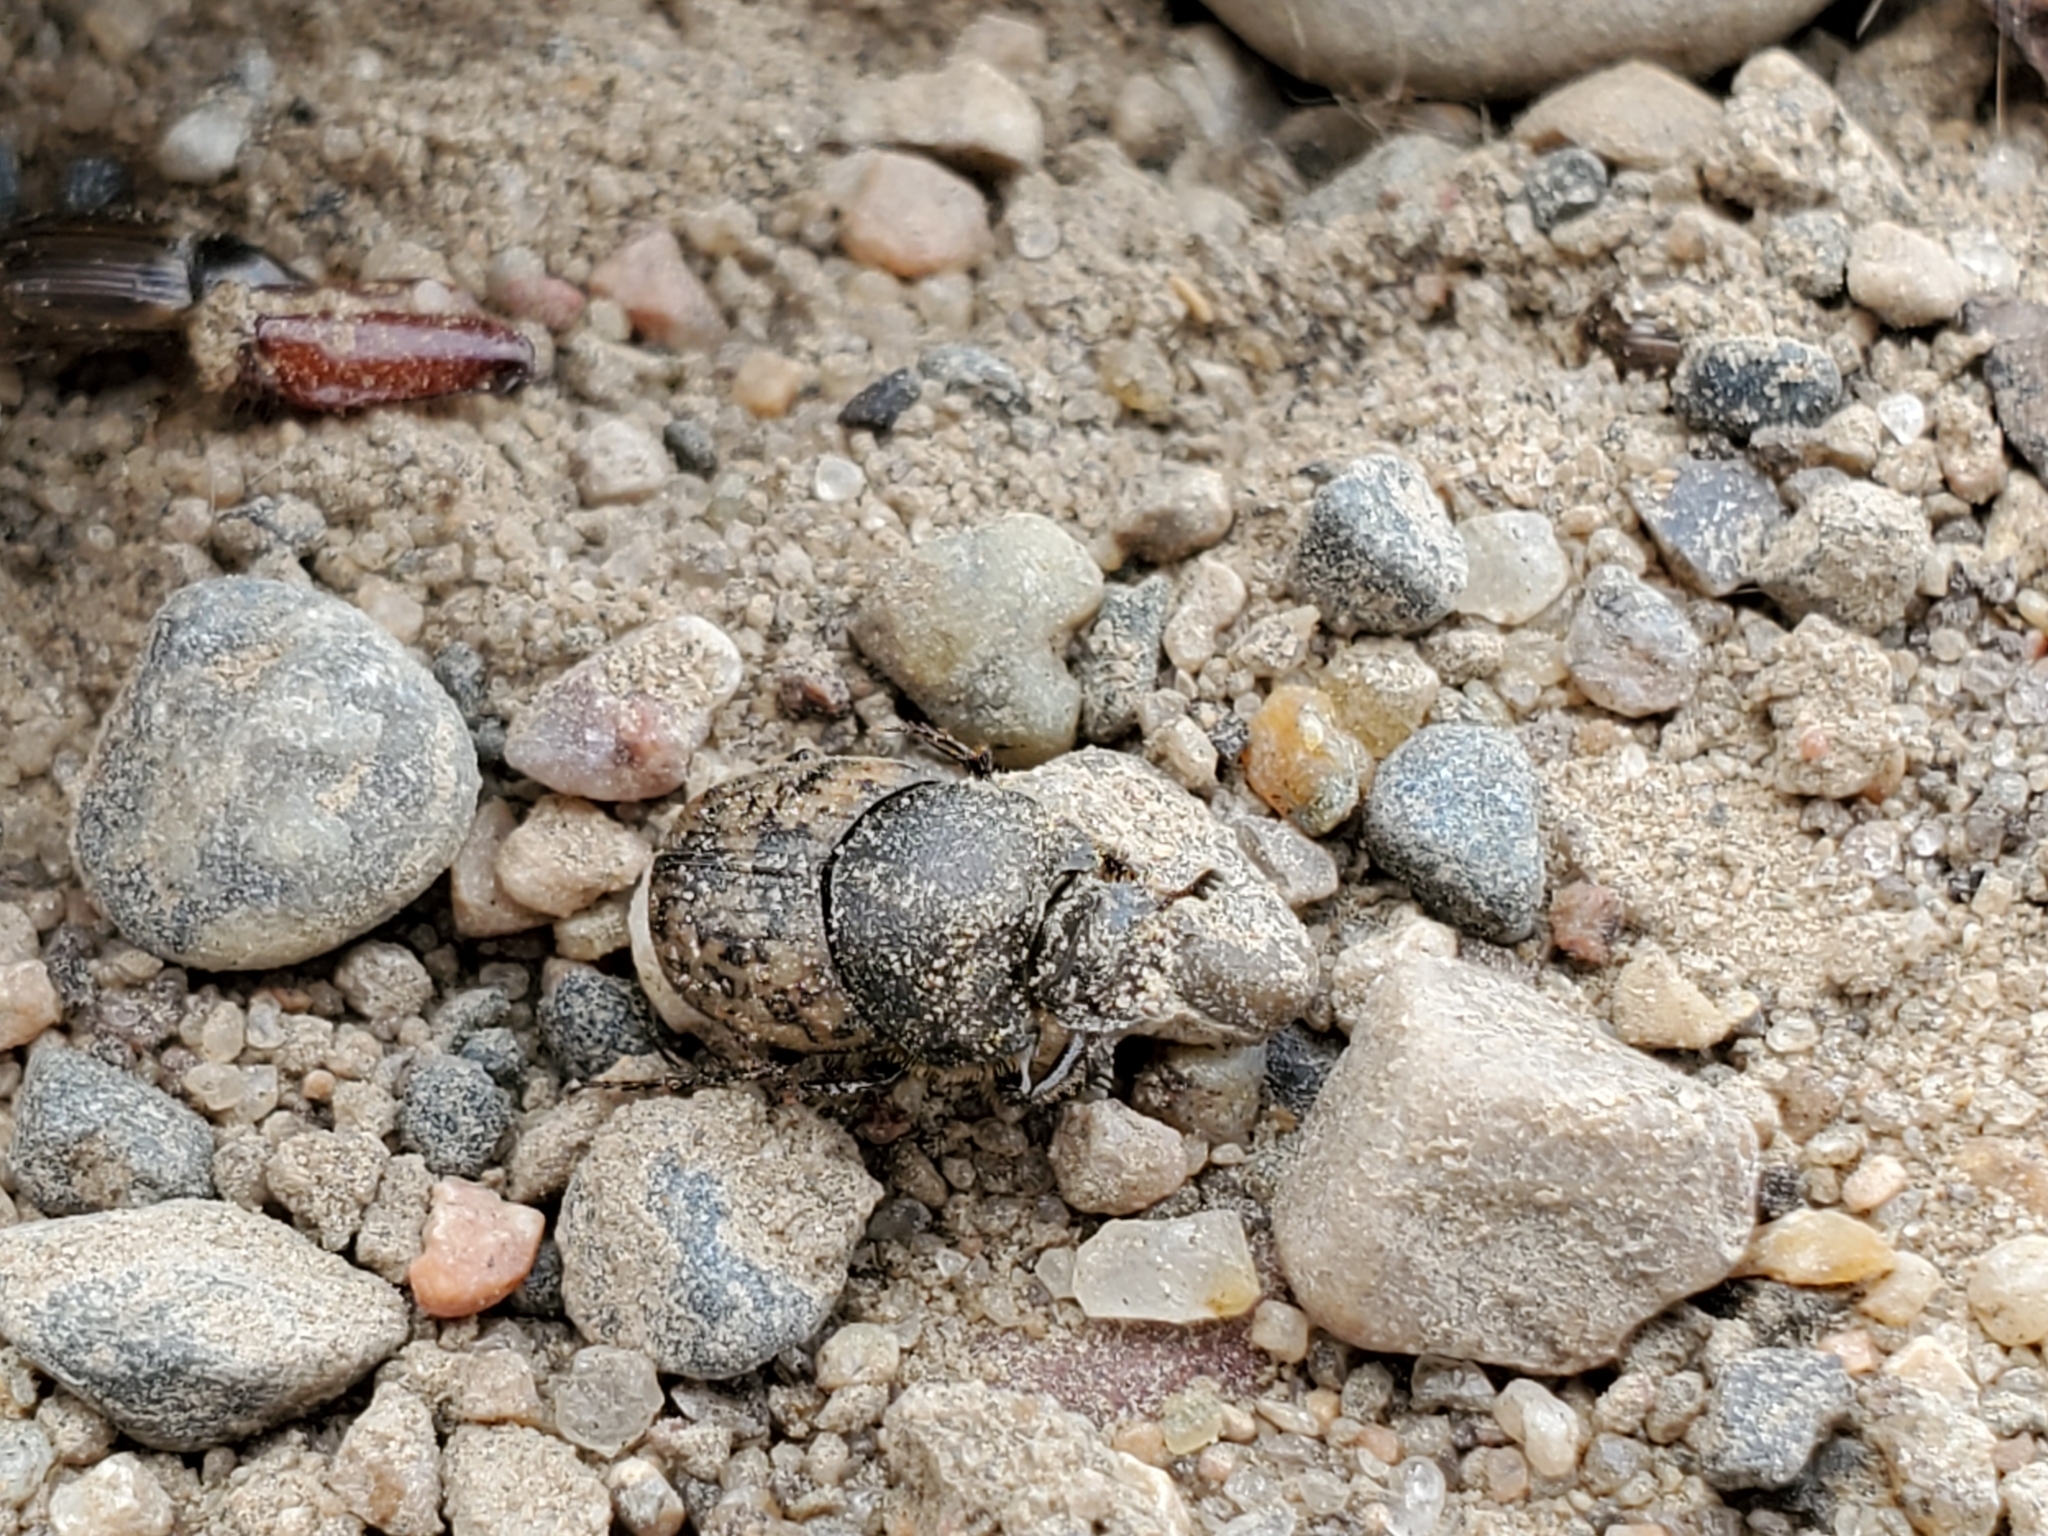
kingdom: Animalia
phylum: Arthropoda
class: Insecta
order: Coleoptera
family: Scarabaeidae
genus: Onthophagus
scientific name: Onthophagus nuchicornis
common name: Mottled dung beetle
